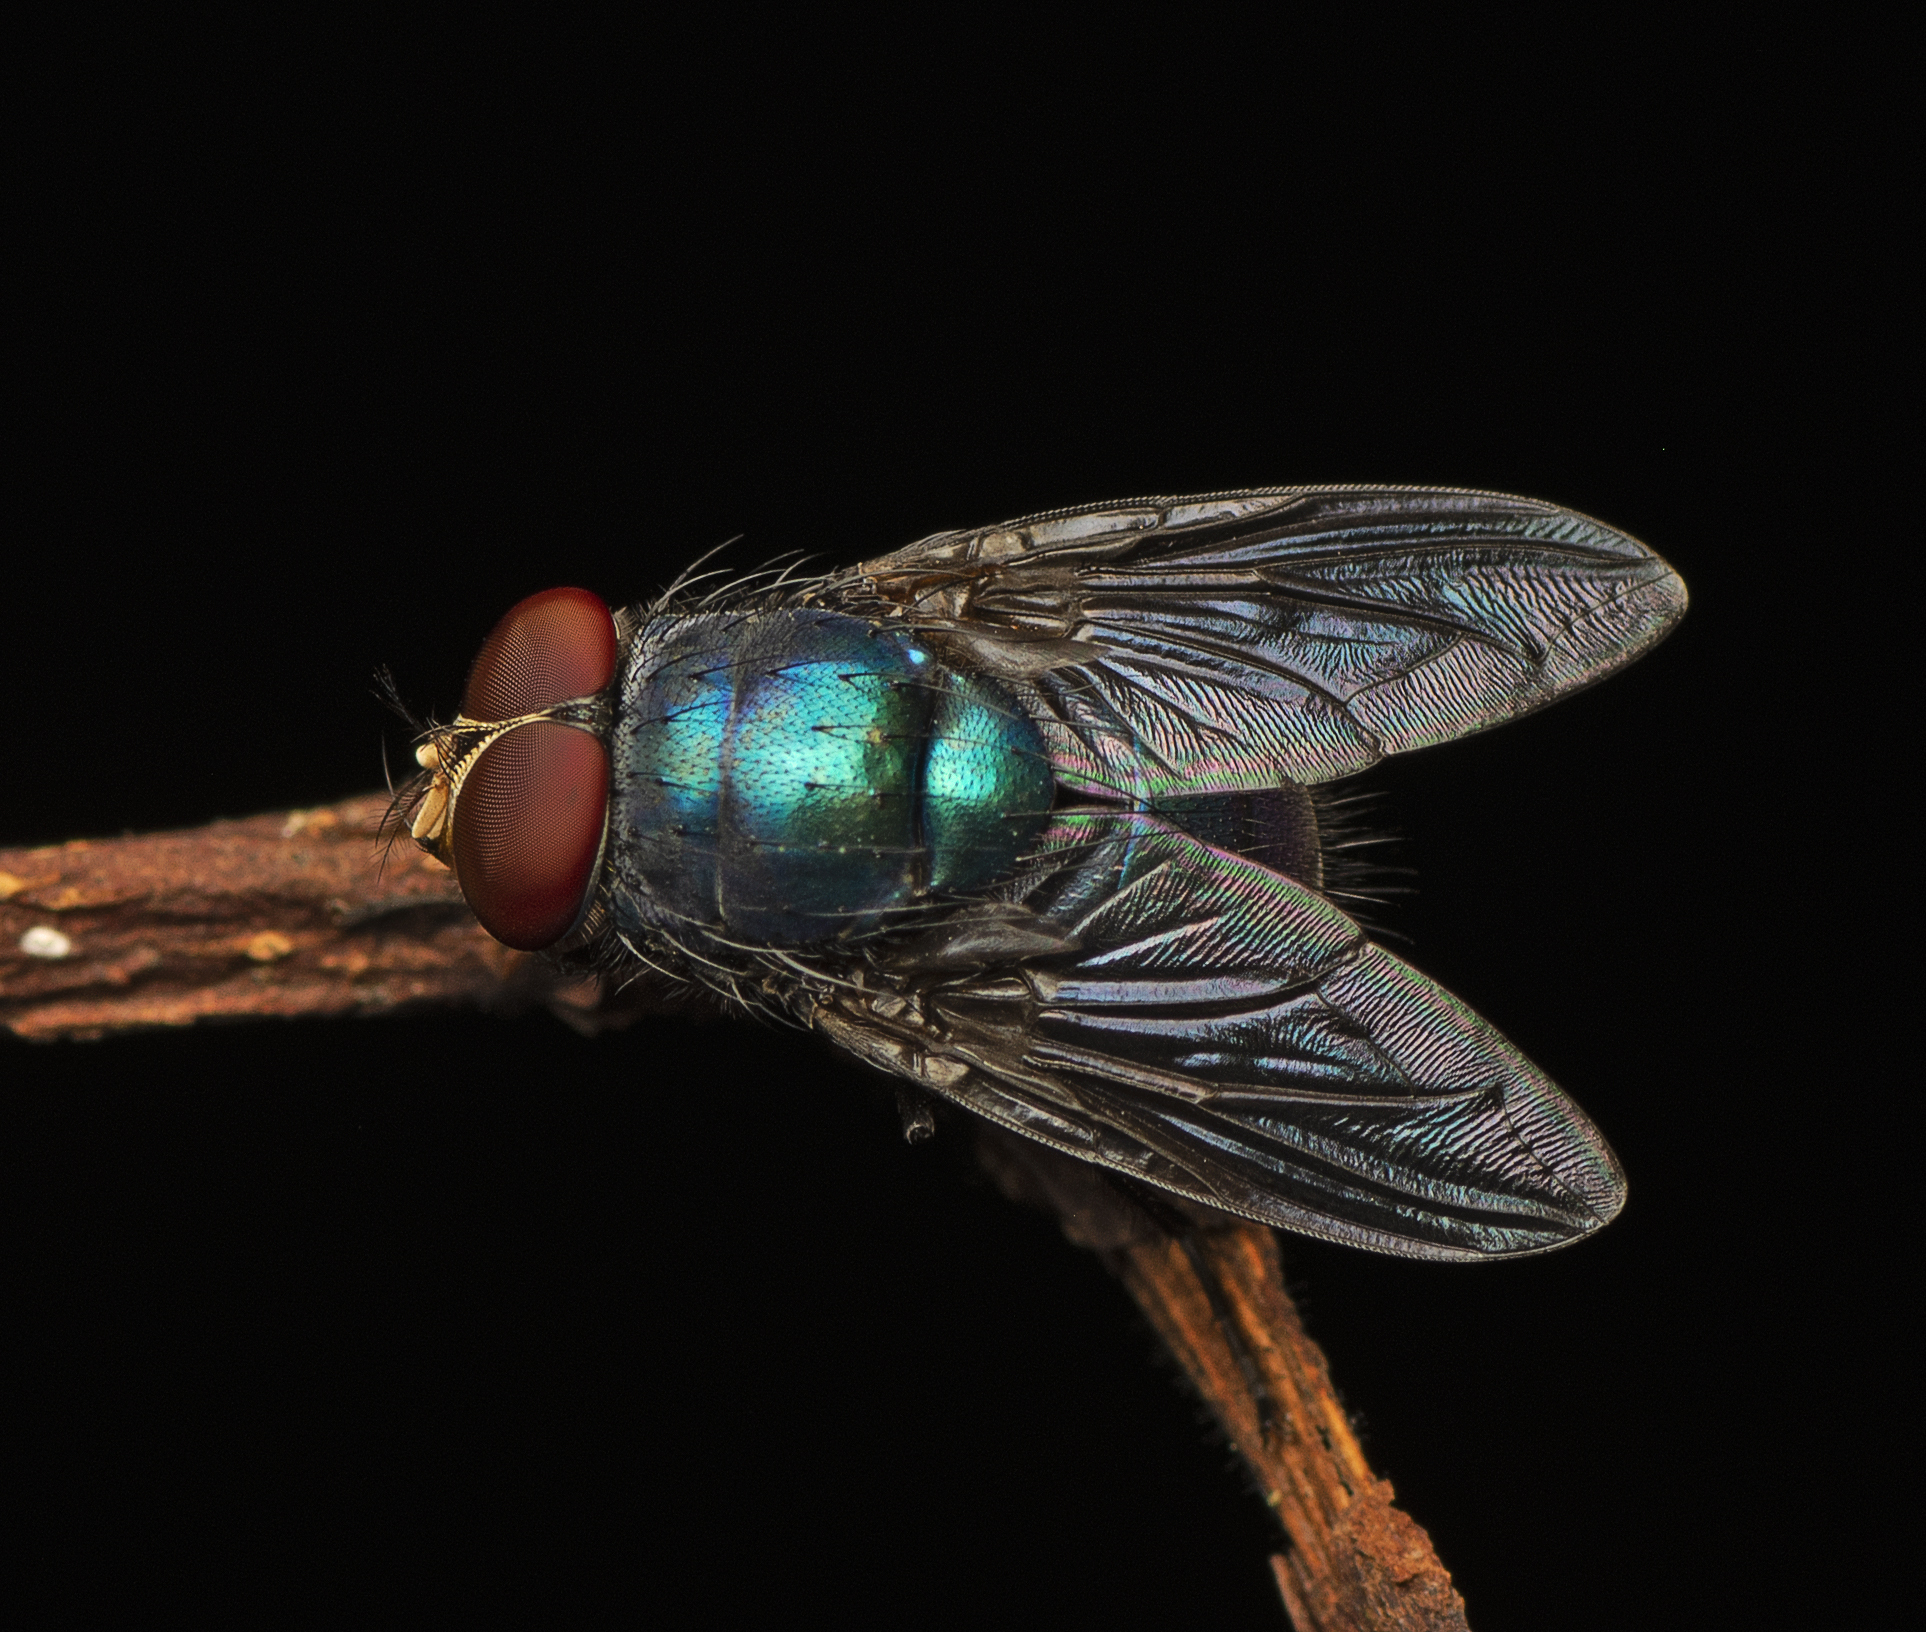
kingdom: Animalia
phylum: Arthropoda
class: Insecta
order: Diptera
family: Calliphoridae
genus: Lucilia
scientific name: Lucilia porphyrina
